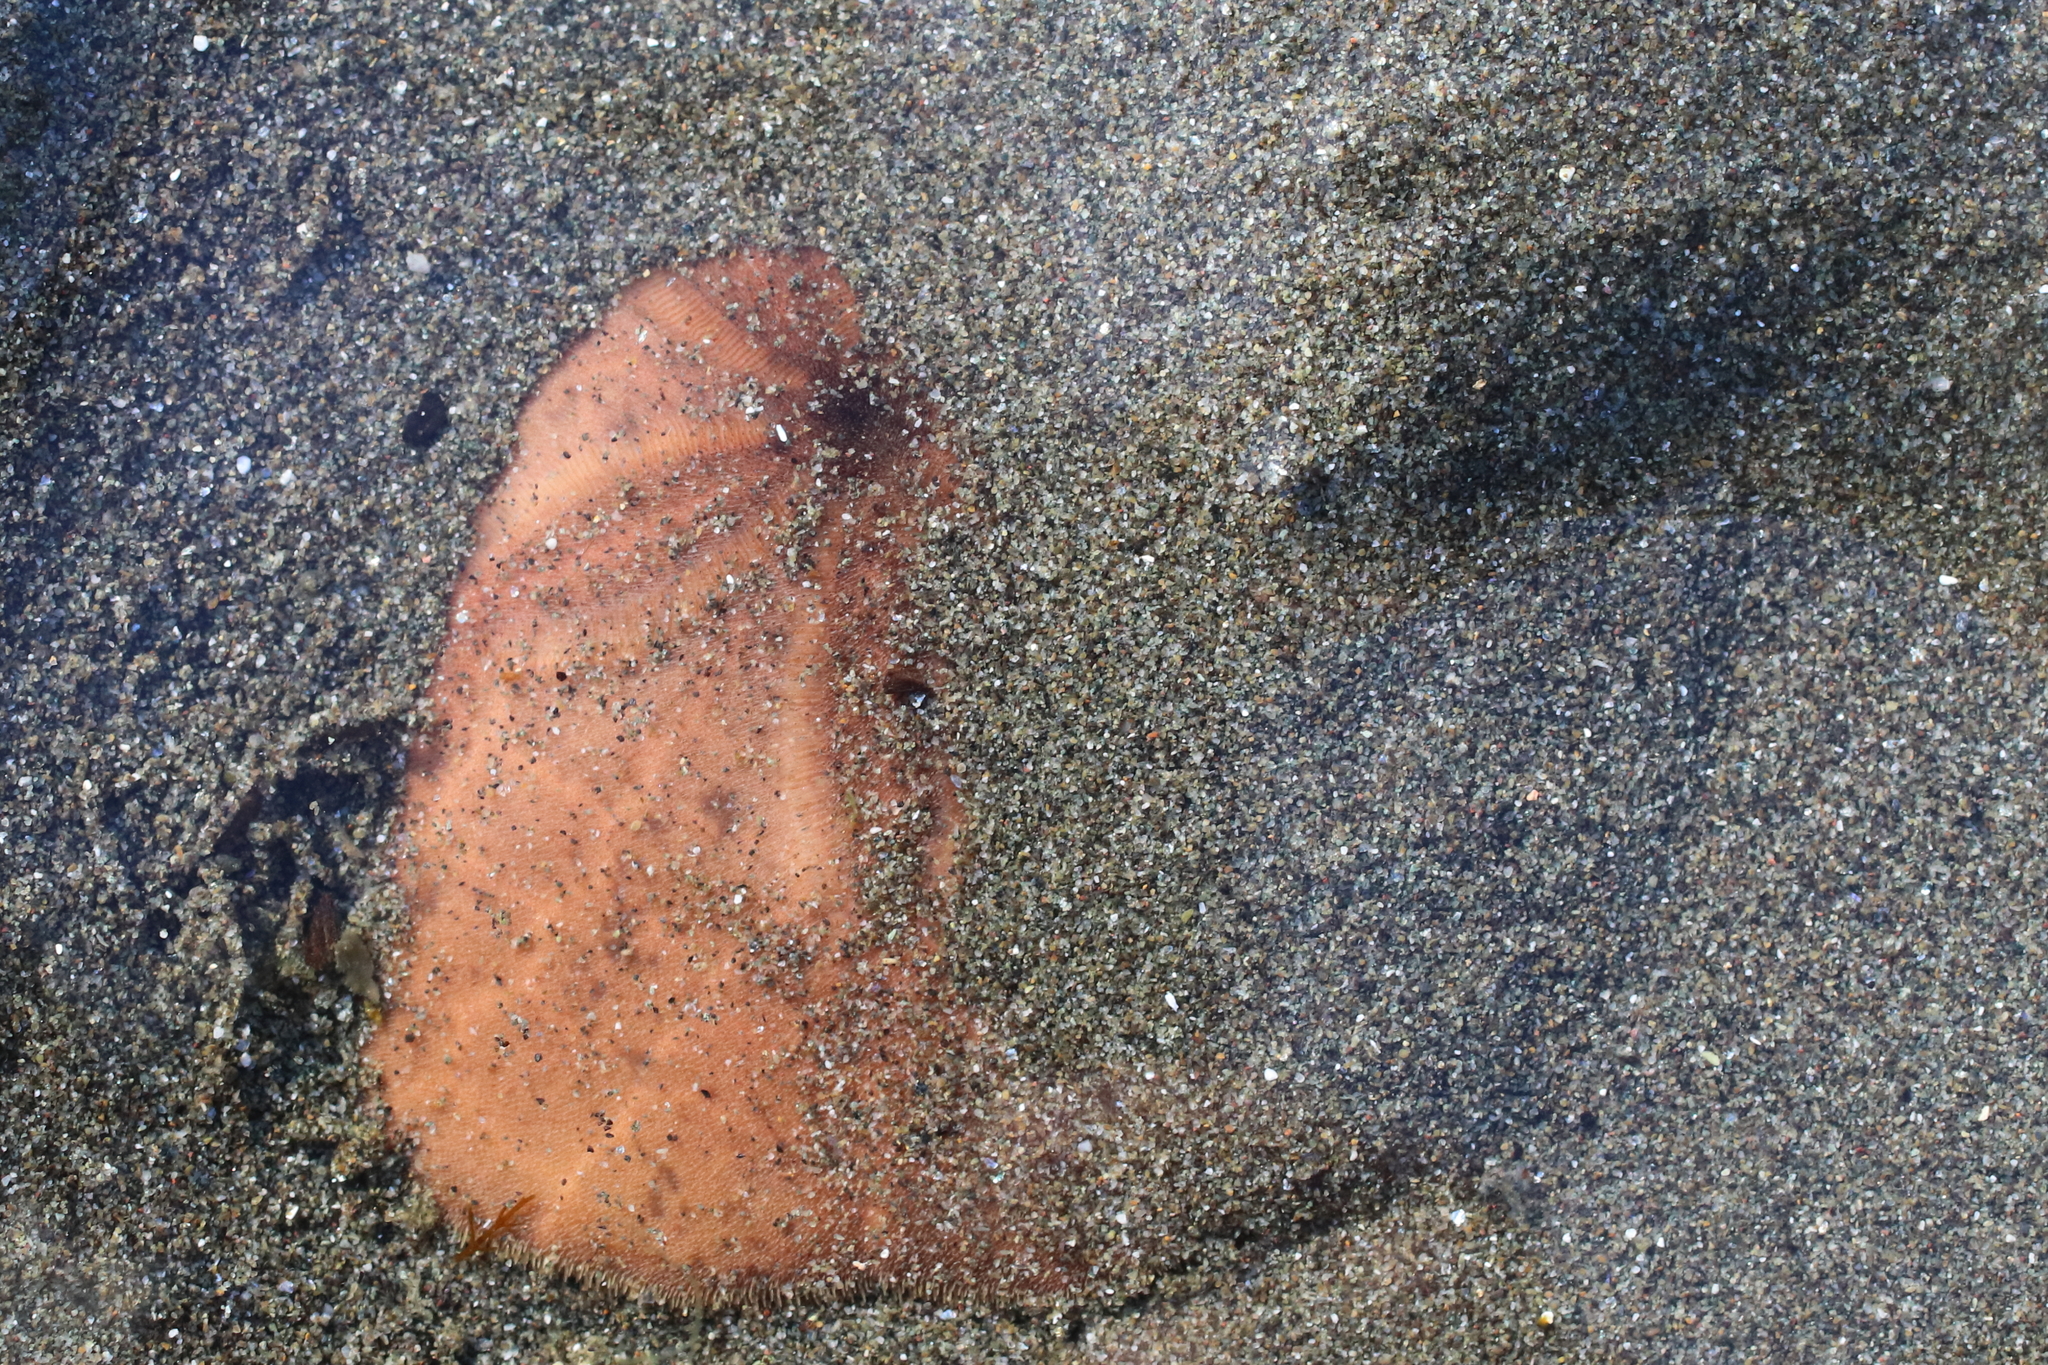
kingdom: Animalia
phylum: Echinodermata
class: Echinoidea
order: Echinolampadacea
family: Echinarachniidae
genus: Echinarachnius
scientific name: Echinarachnius parma
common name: Common sand dollar
